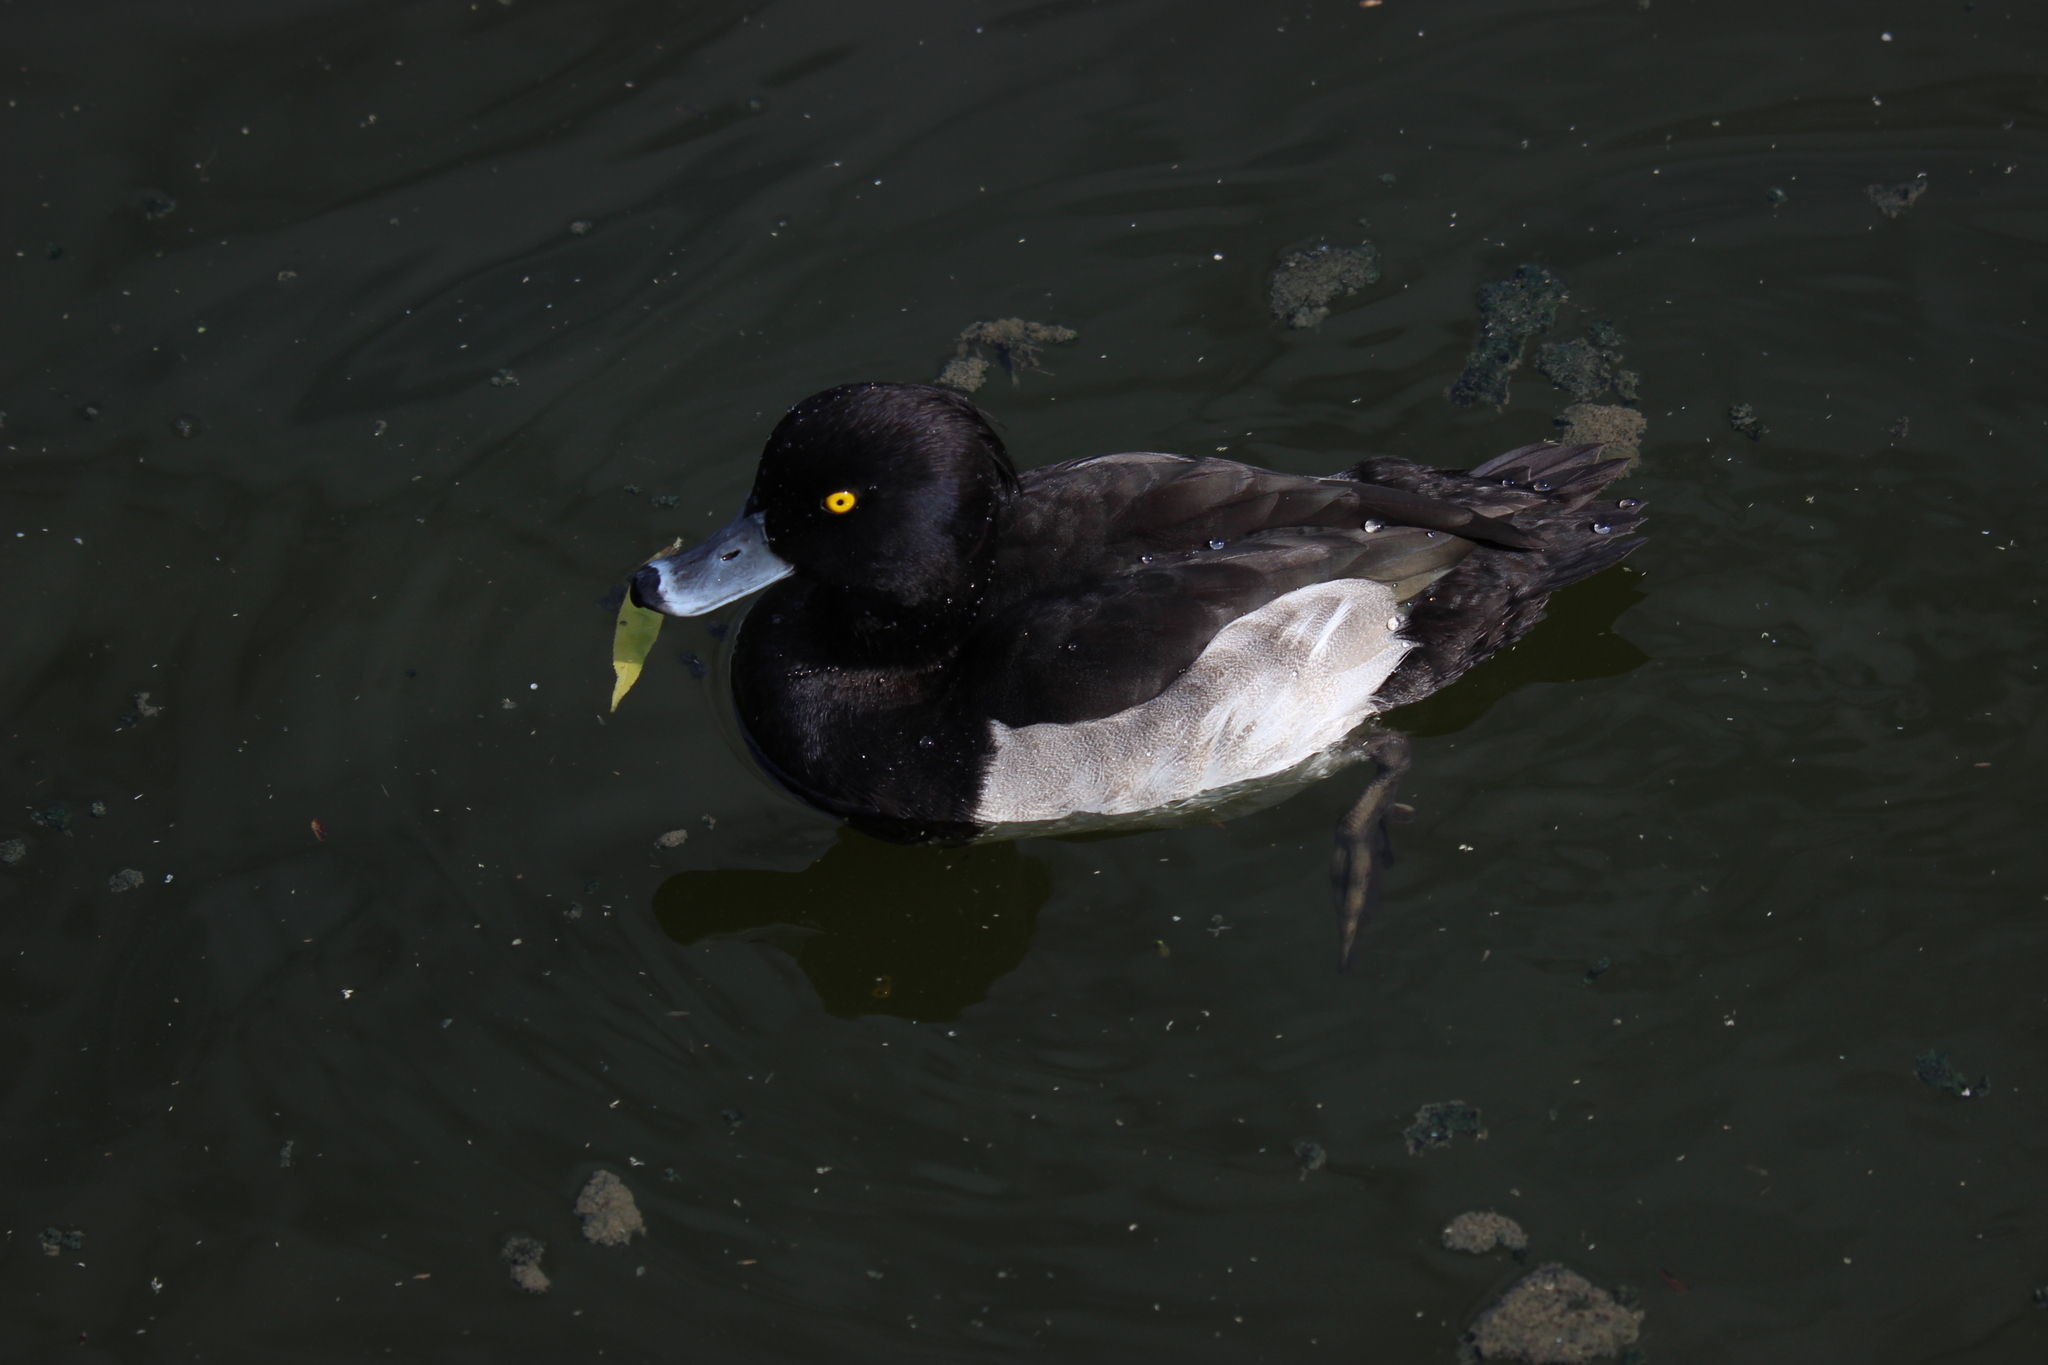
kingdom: Animalia
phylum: Chordata
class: Aves
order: Anseriformes
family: Anatidae
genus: Aythya
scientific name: Aythya fuligula
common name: Tufted duck
